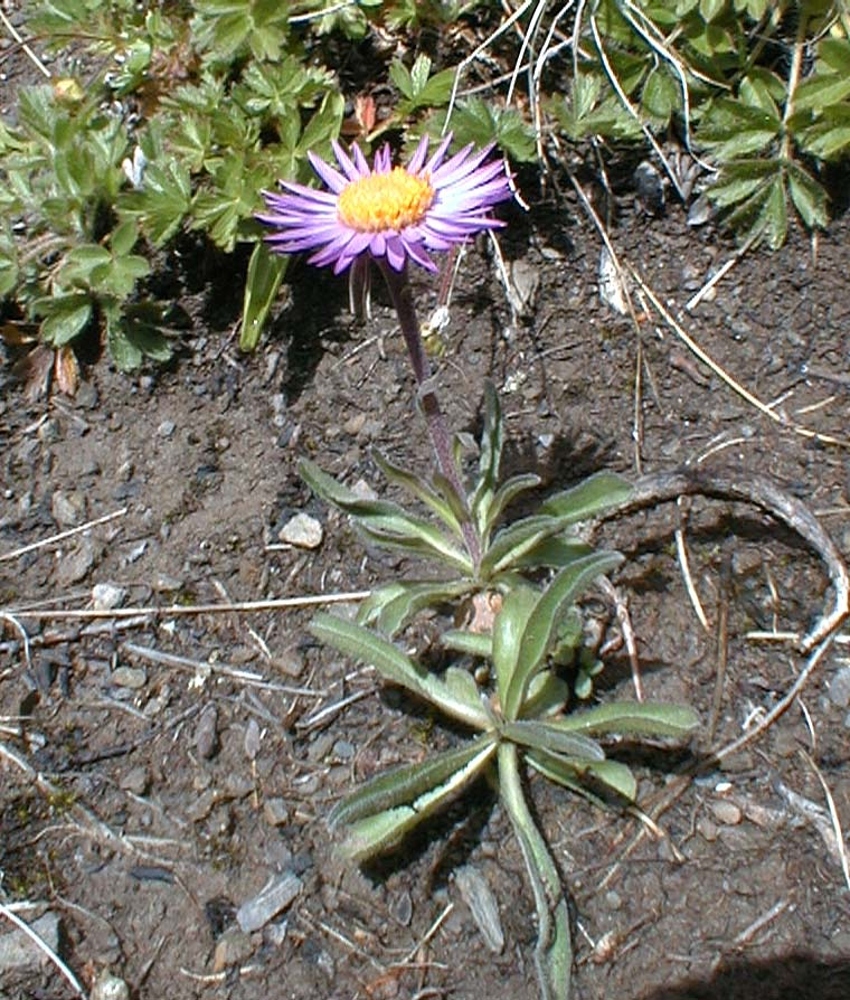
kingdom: Plantae
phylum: Tracheophyta
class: Magnoliopsida
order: Asterales
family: Asteraceae
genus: Aster
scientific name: Aster alpinus
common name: Alpine aster
